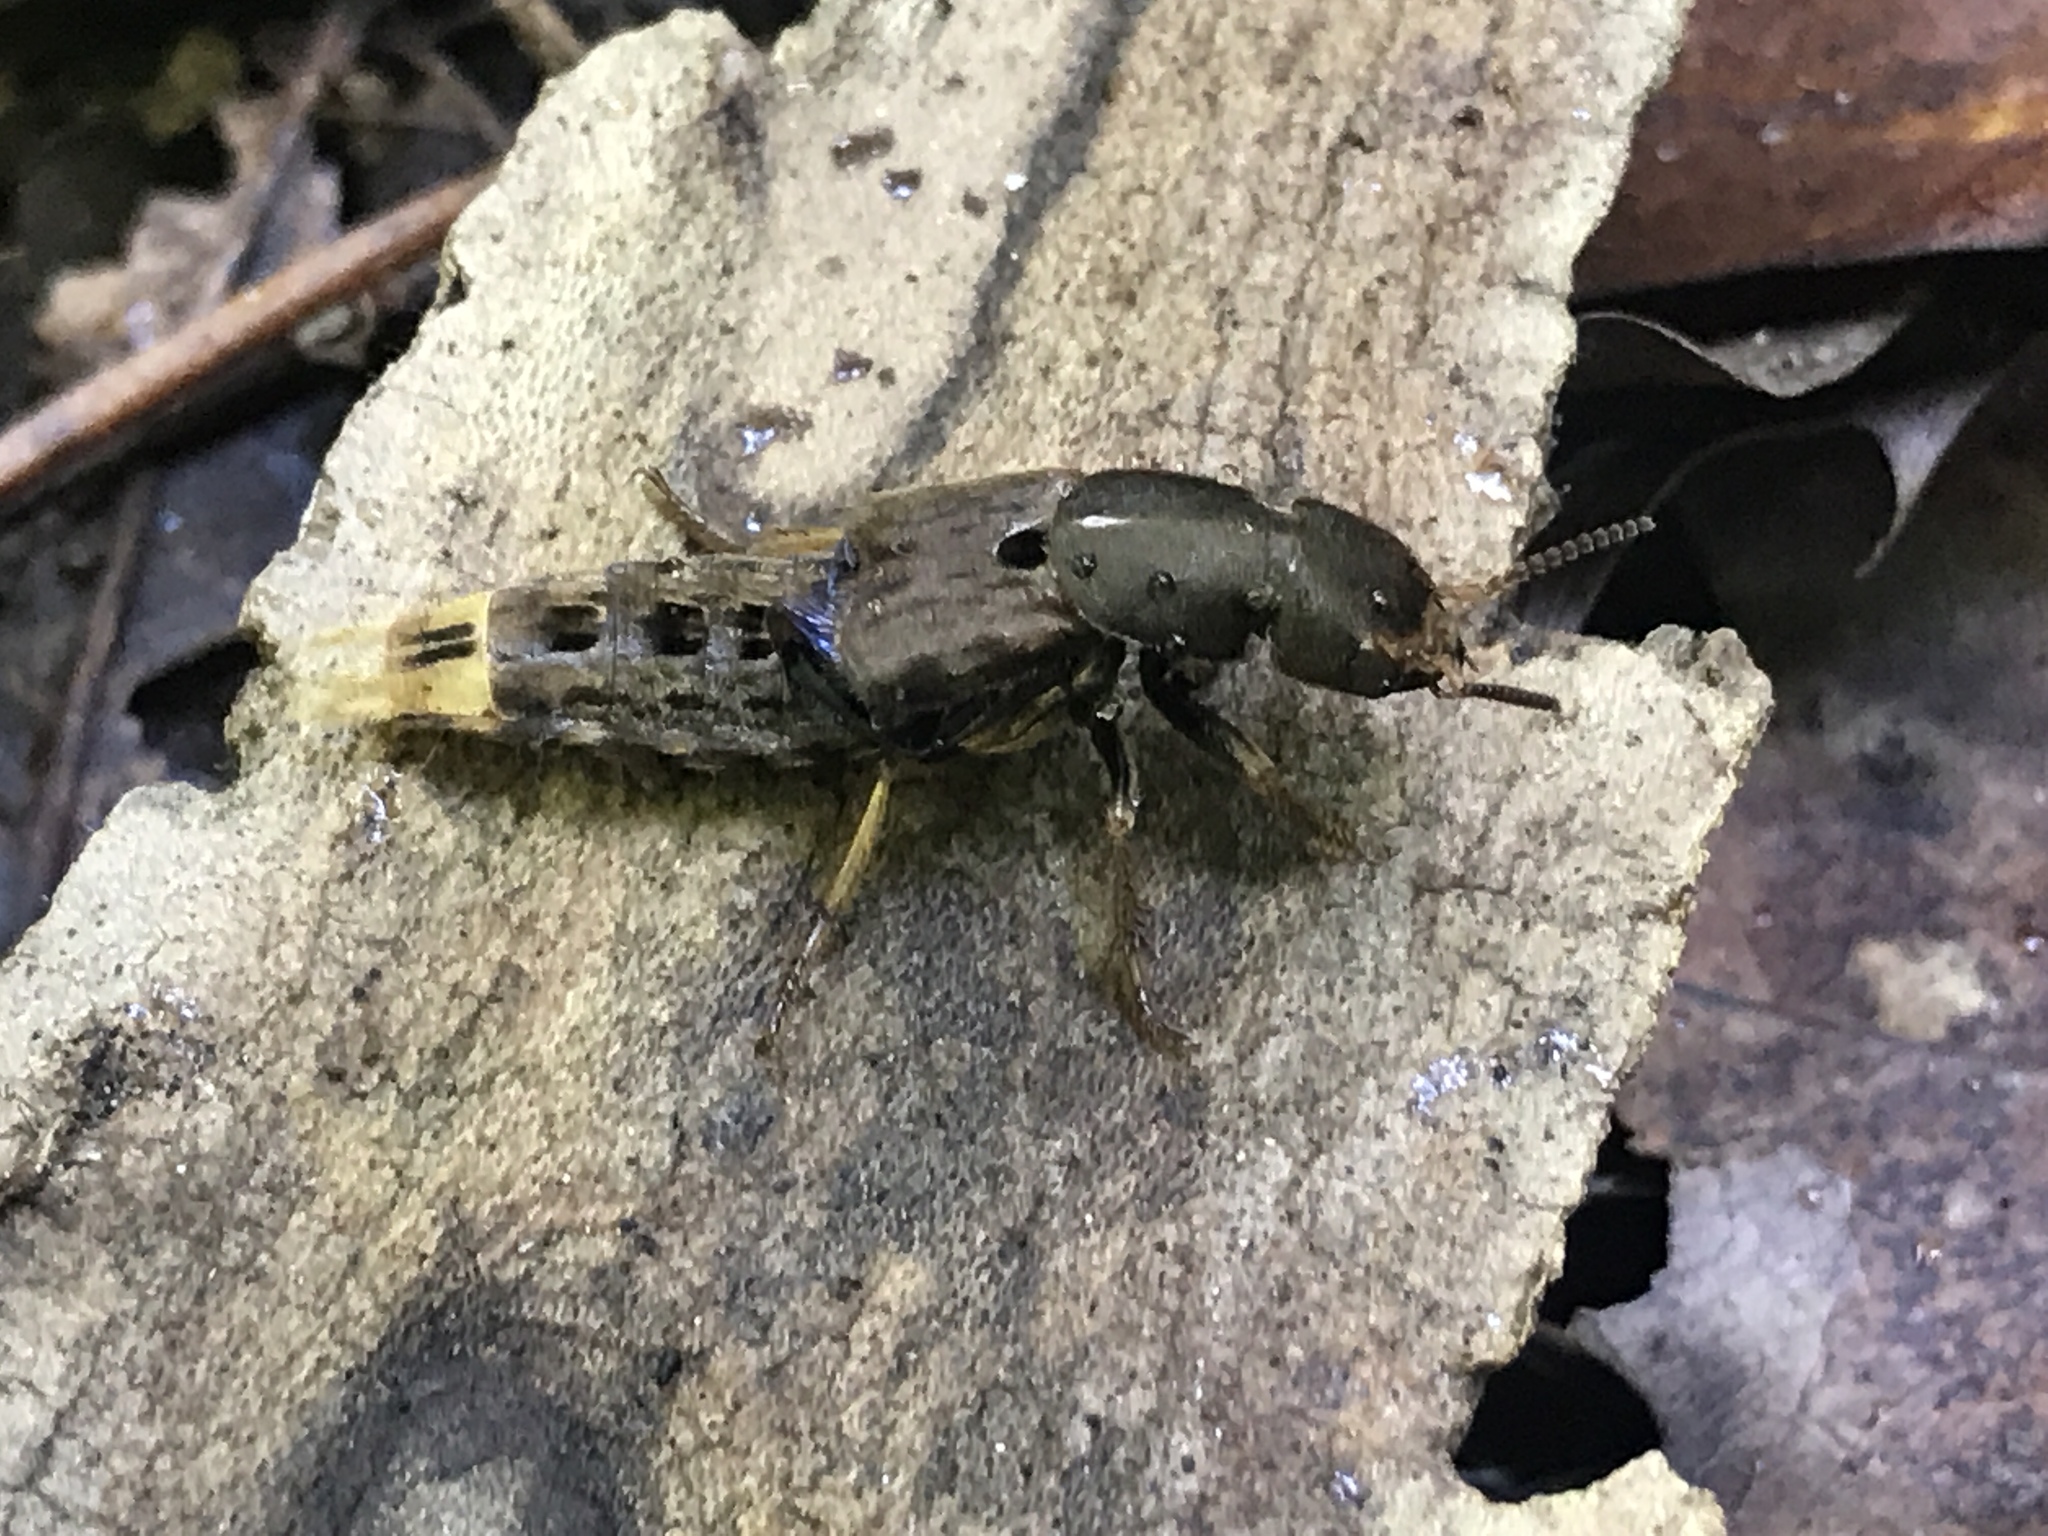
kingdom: Animalia
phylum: Arthropoda
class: Insecta
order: Coleoptera
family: Staphylinidae
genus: Platydracus
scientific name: Platydracus maculosus
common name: Brown rove beetle
